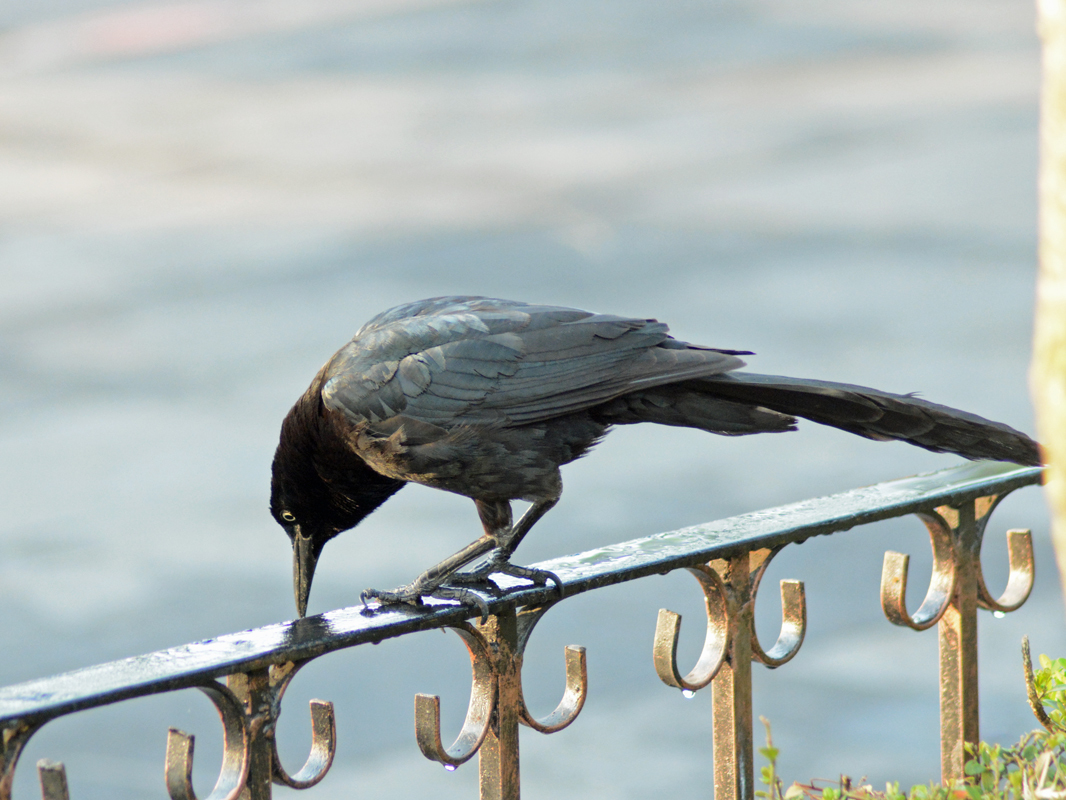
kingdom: Animalia
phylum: Chordata
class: Aves
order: Passeriformes
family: Icteridae
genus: Quiscalus
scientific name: Quiscalus mexicanus
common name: Great-tailed grackle
